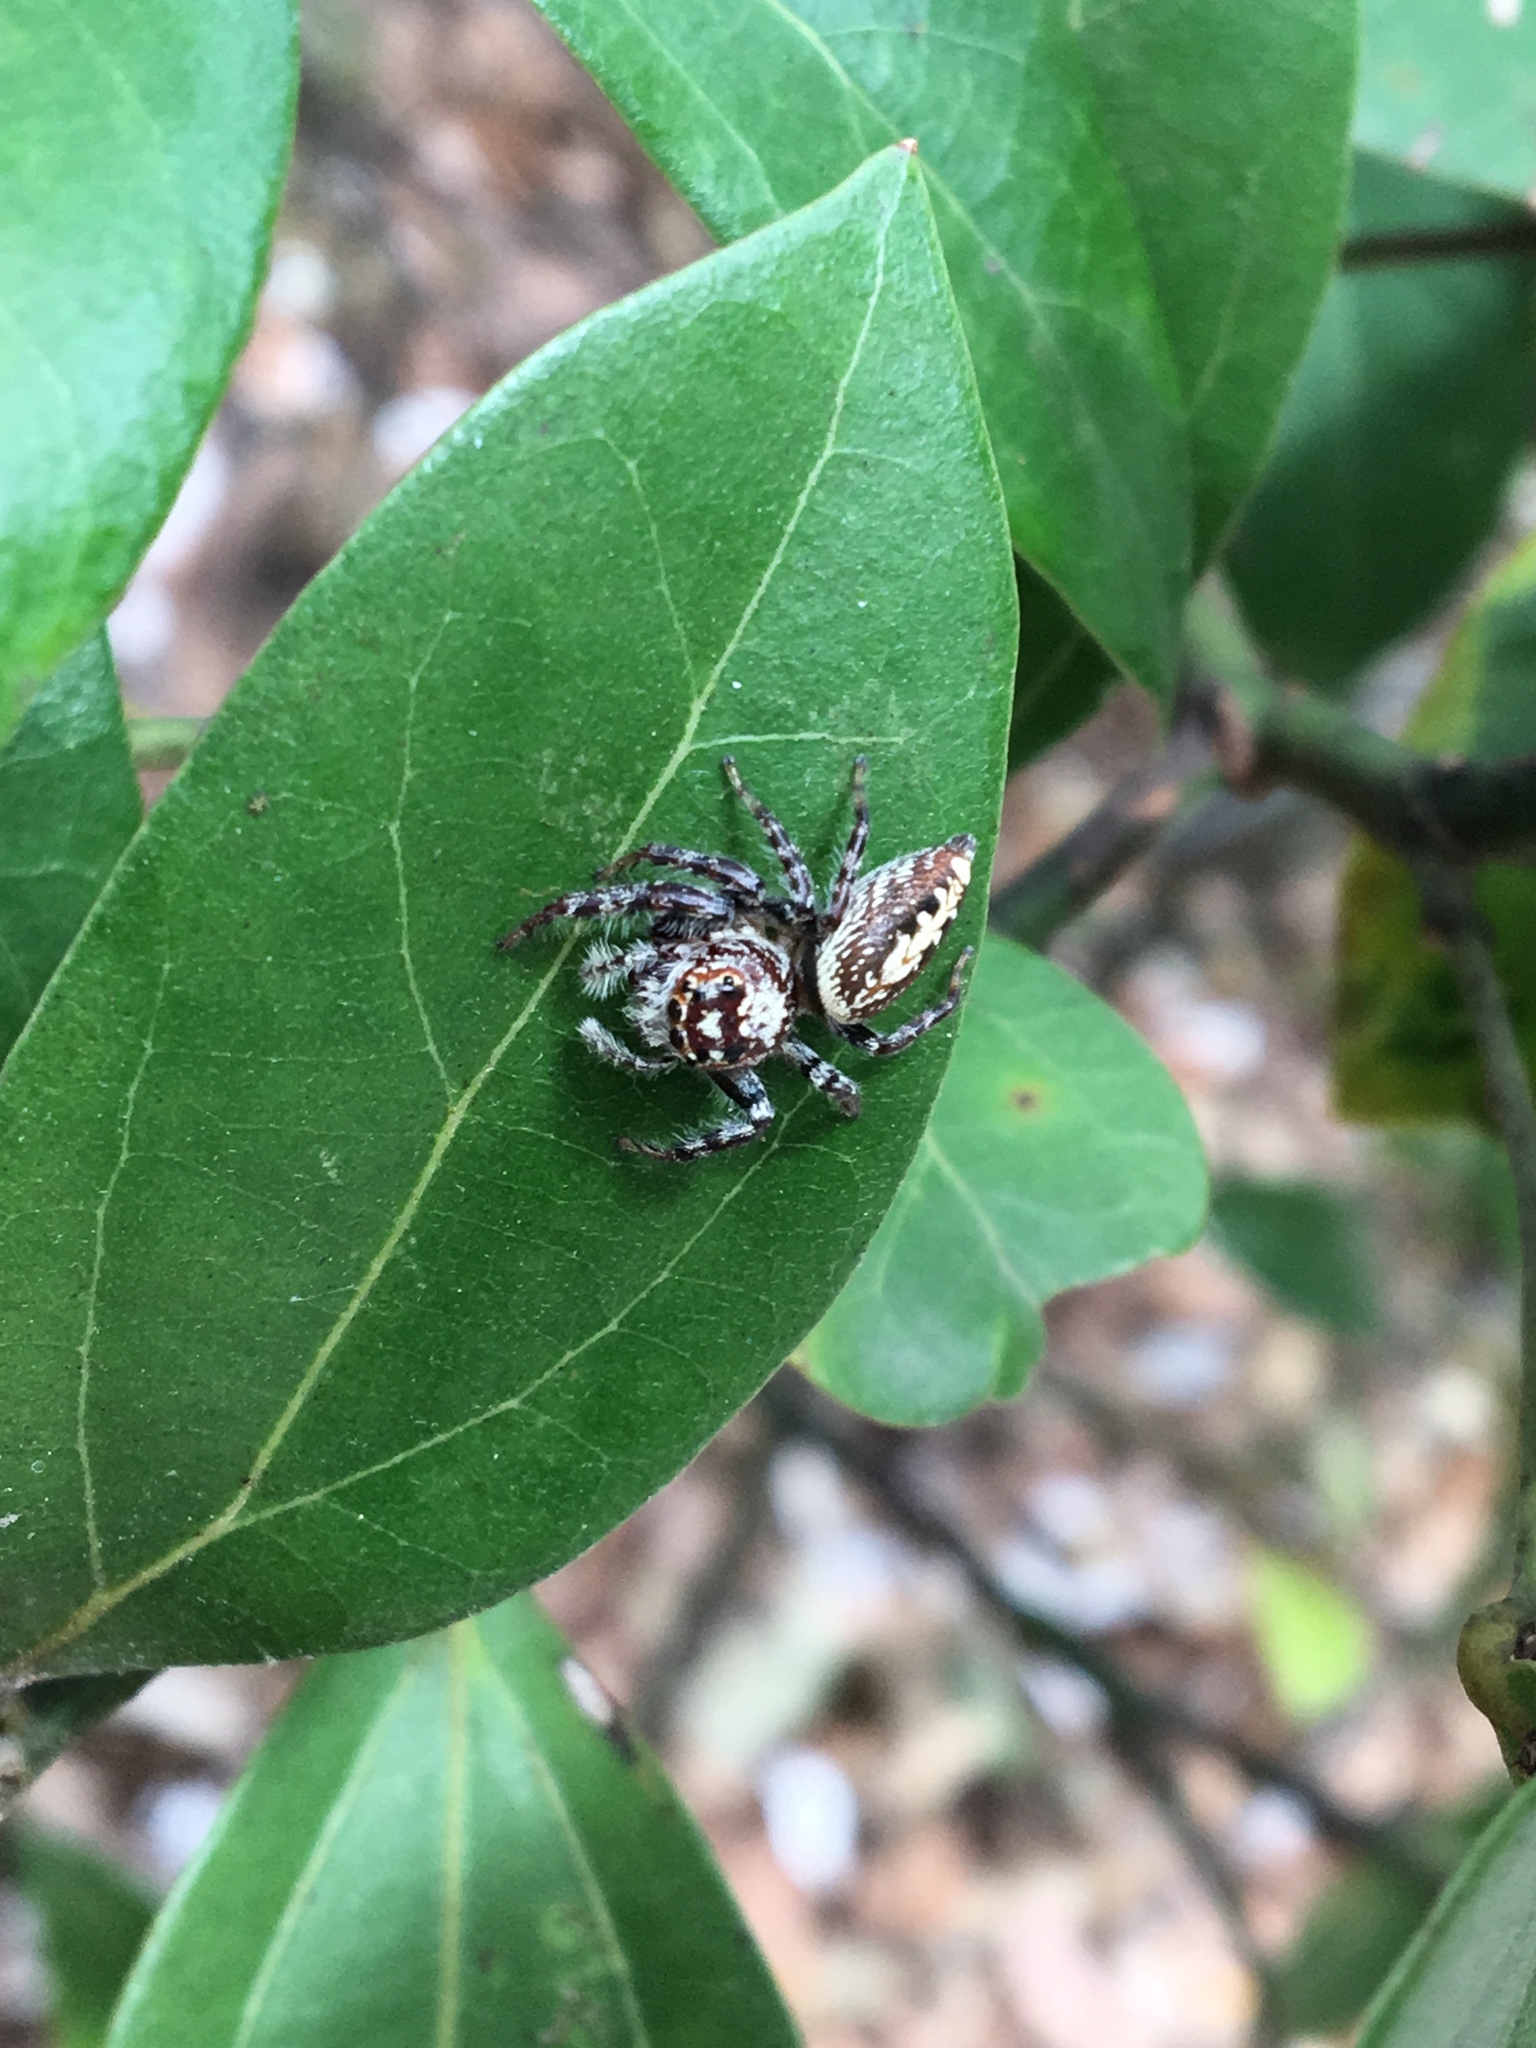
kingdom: Animalia
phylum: Arthropoda
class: Arachnida
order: Araneae
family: Salticidae
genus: Opisthoncus
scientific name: Opisthoncus quadratarius
